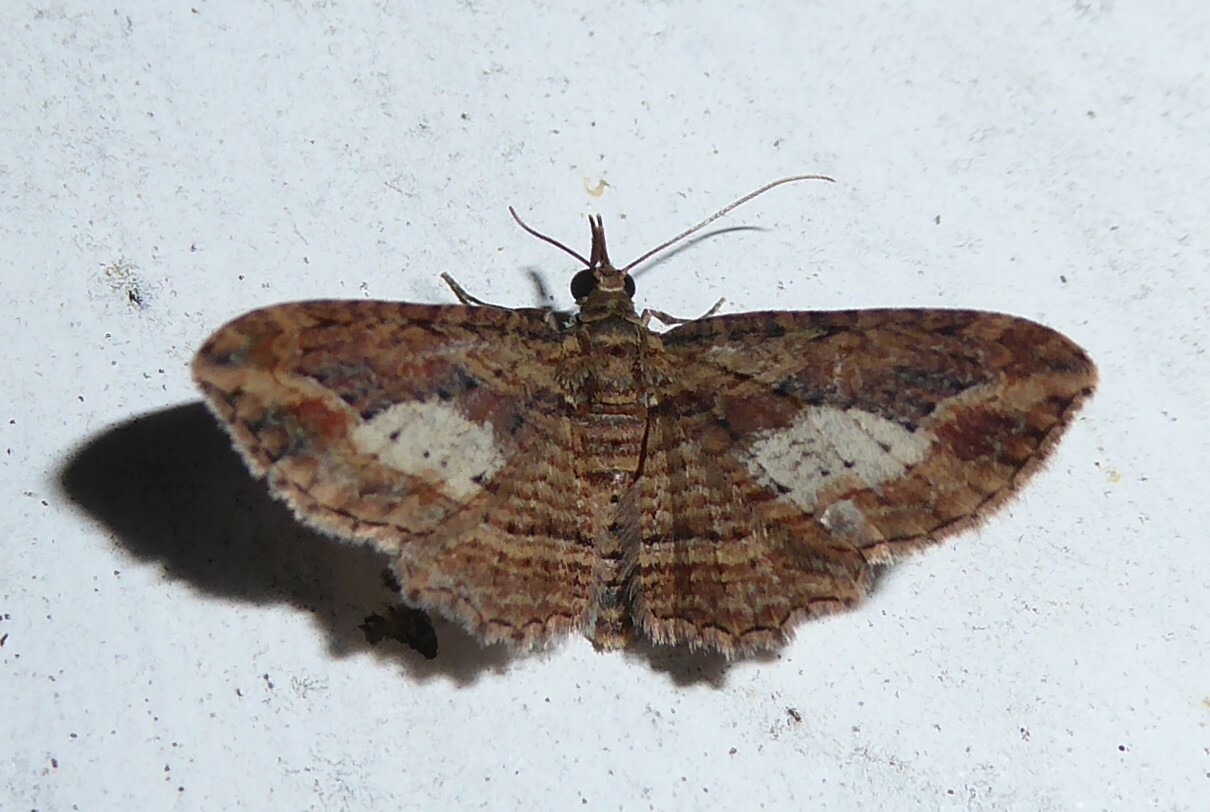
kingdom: Animalia
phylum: Arthropoda
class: Insecta
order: Lepidoptera
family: Geometridae
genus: Chloroclystis
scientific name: Chloroclystis filata
